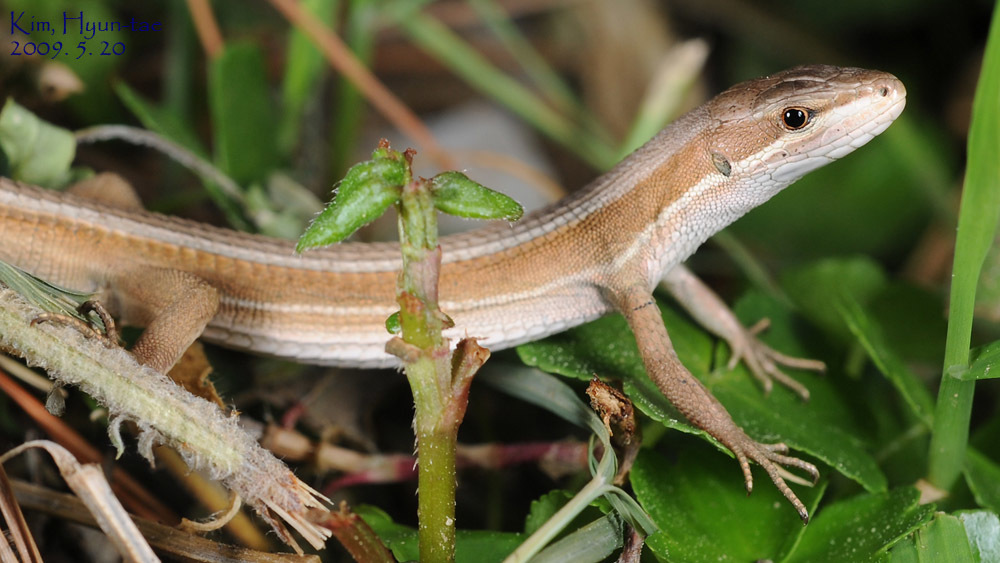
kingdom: Animalia
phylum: Chordata
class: Squamata
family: Lacertidae
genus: Takydromus
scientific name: Takydromus wolteri
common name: Mountain grass lizard
